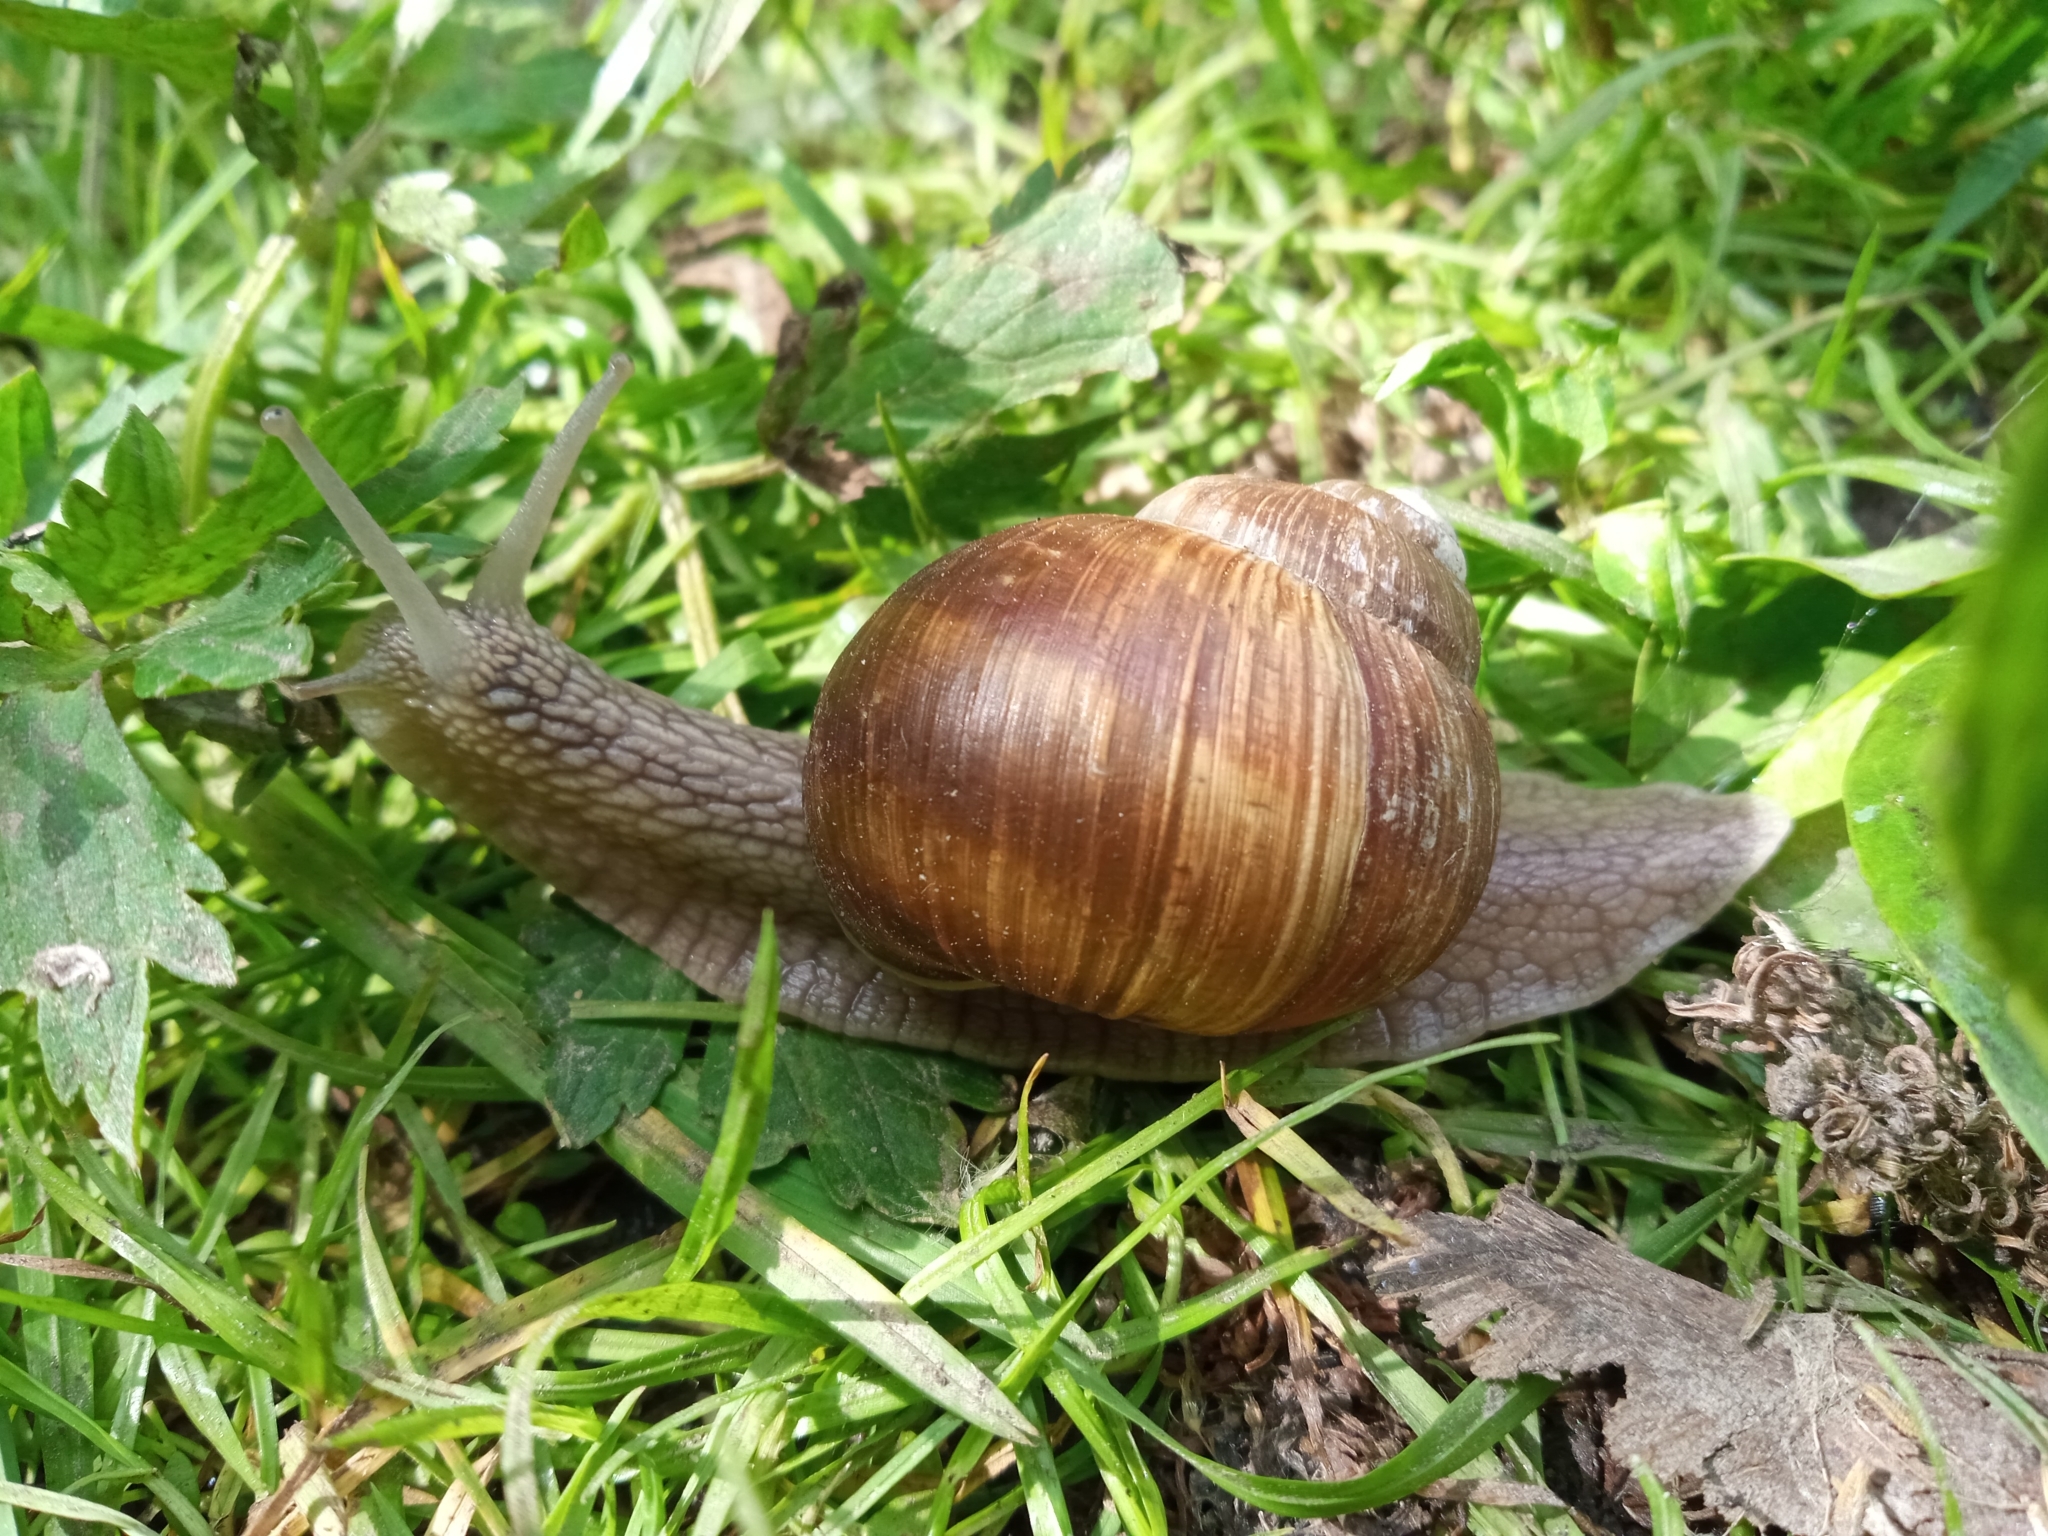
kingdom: Animalia
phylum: Mollusca
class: Gastropoda
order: Stylommatophora
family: Helicidae
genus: Helix
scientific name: Helix pomatia
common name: Roman snail
